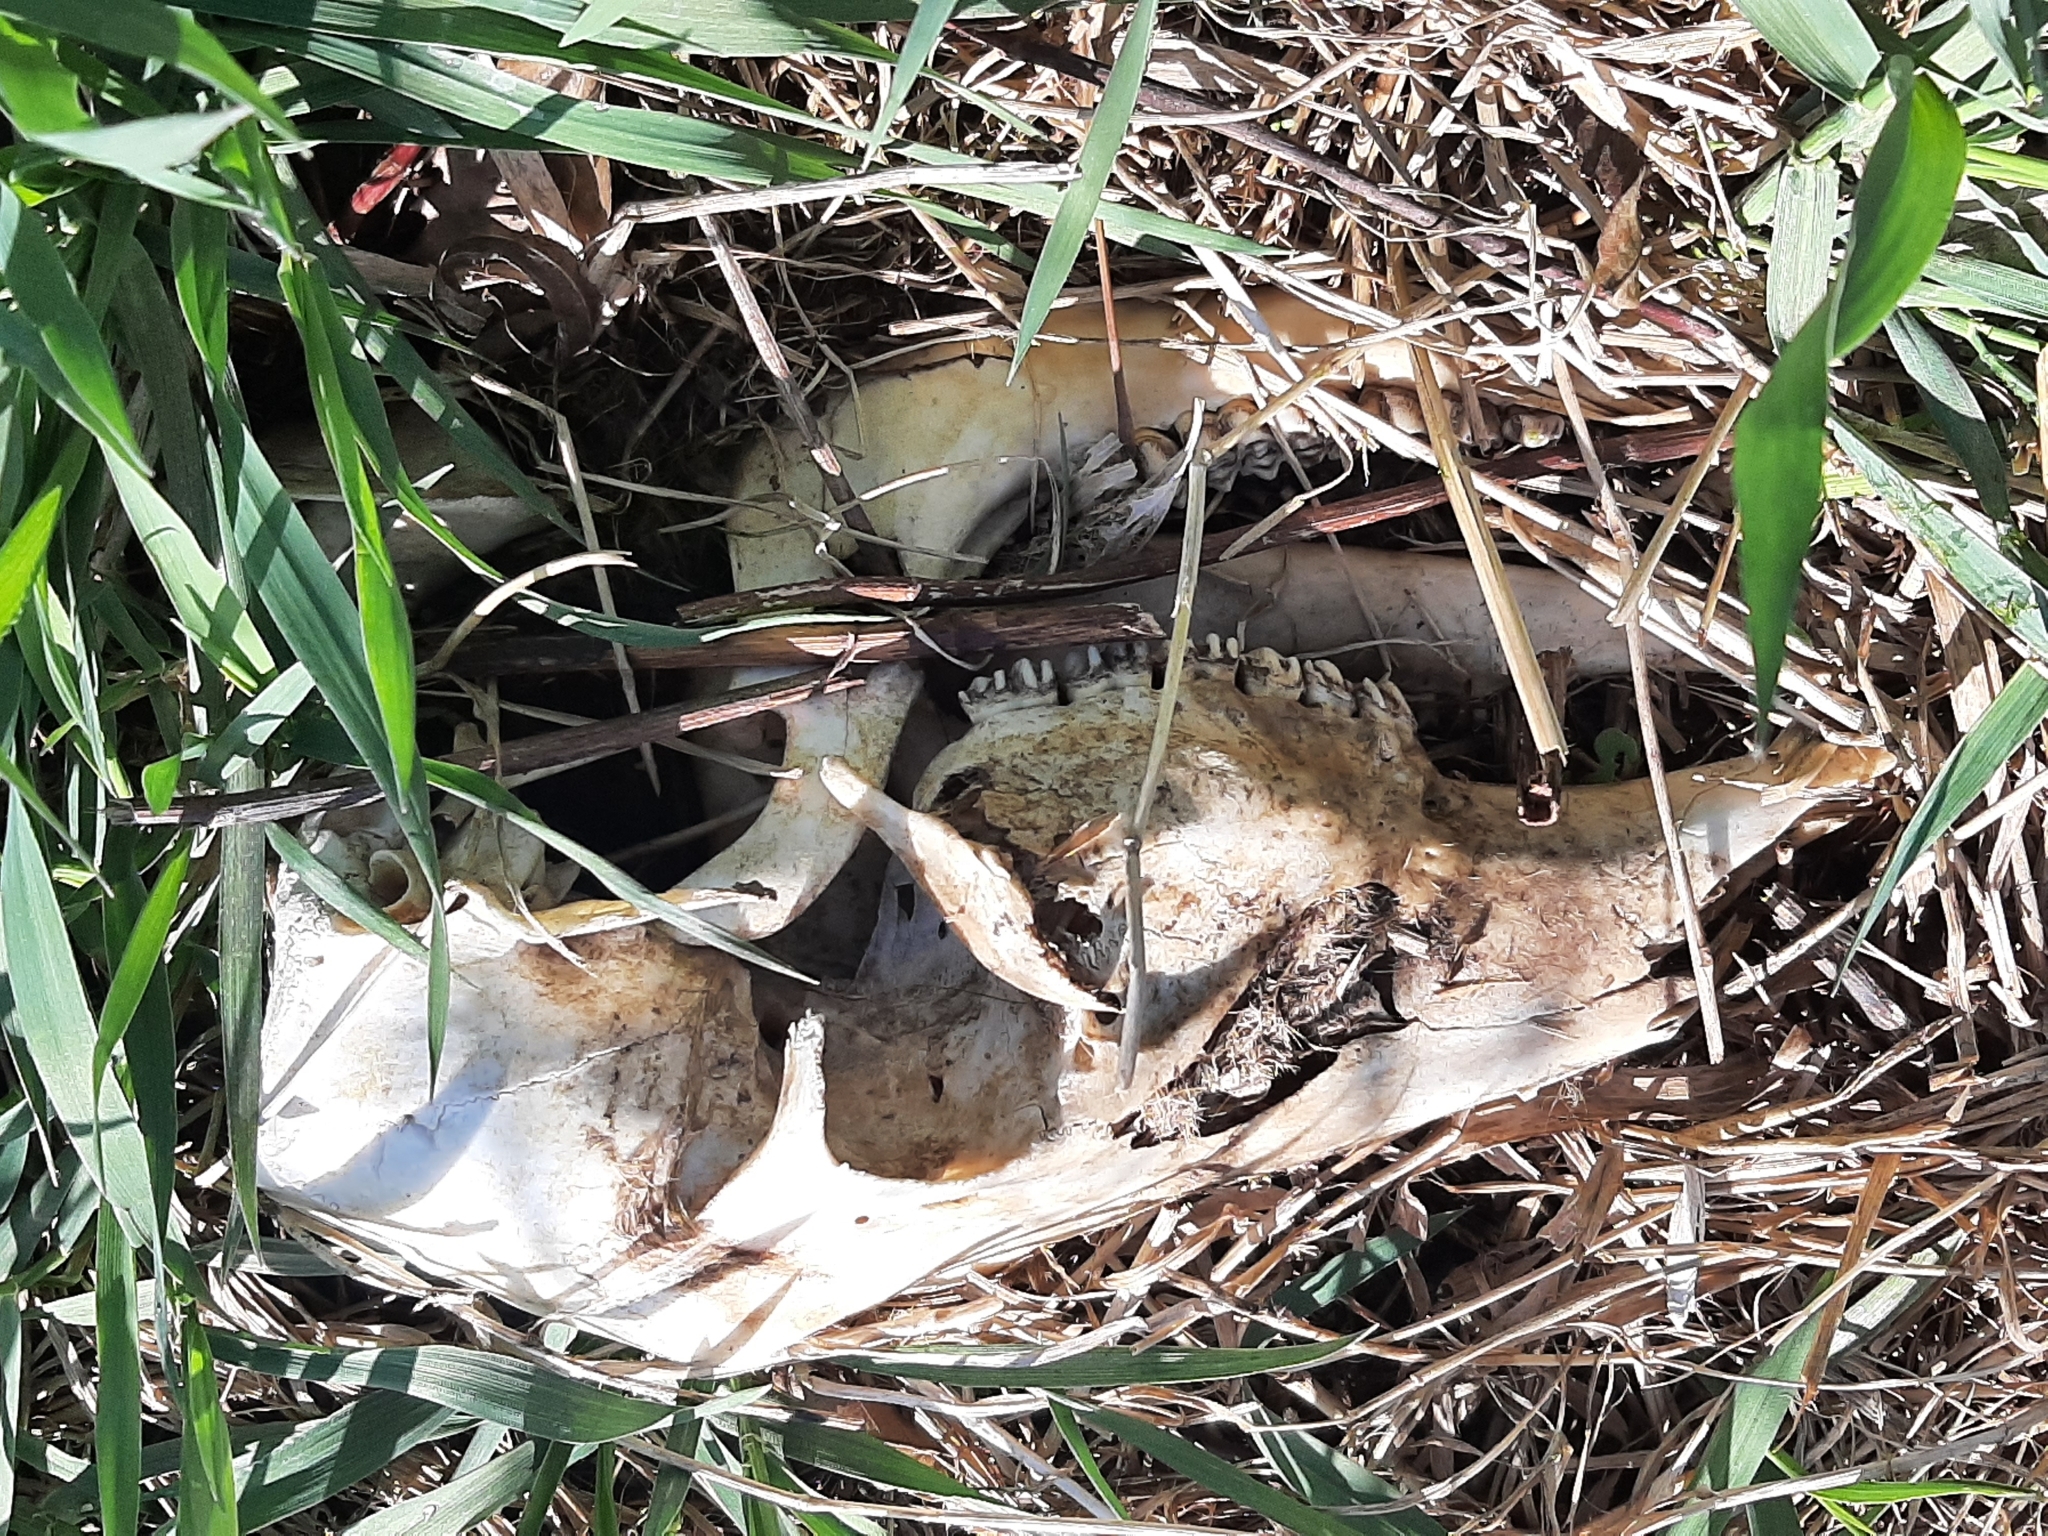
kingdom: Animalia
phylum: Chordata
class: Mammalia
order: Artiodactyla
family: Cervidae
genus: Odocoileus
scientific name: Odocoileus virginianus
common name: White-tailed deer
